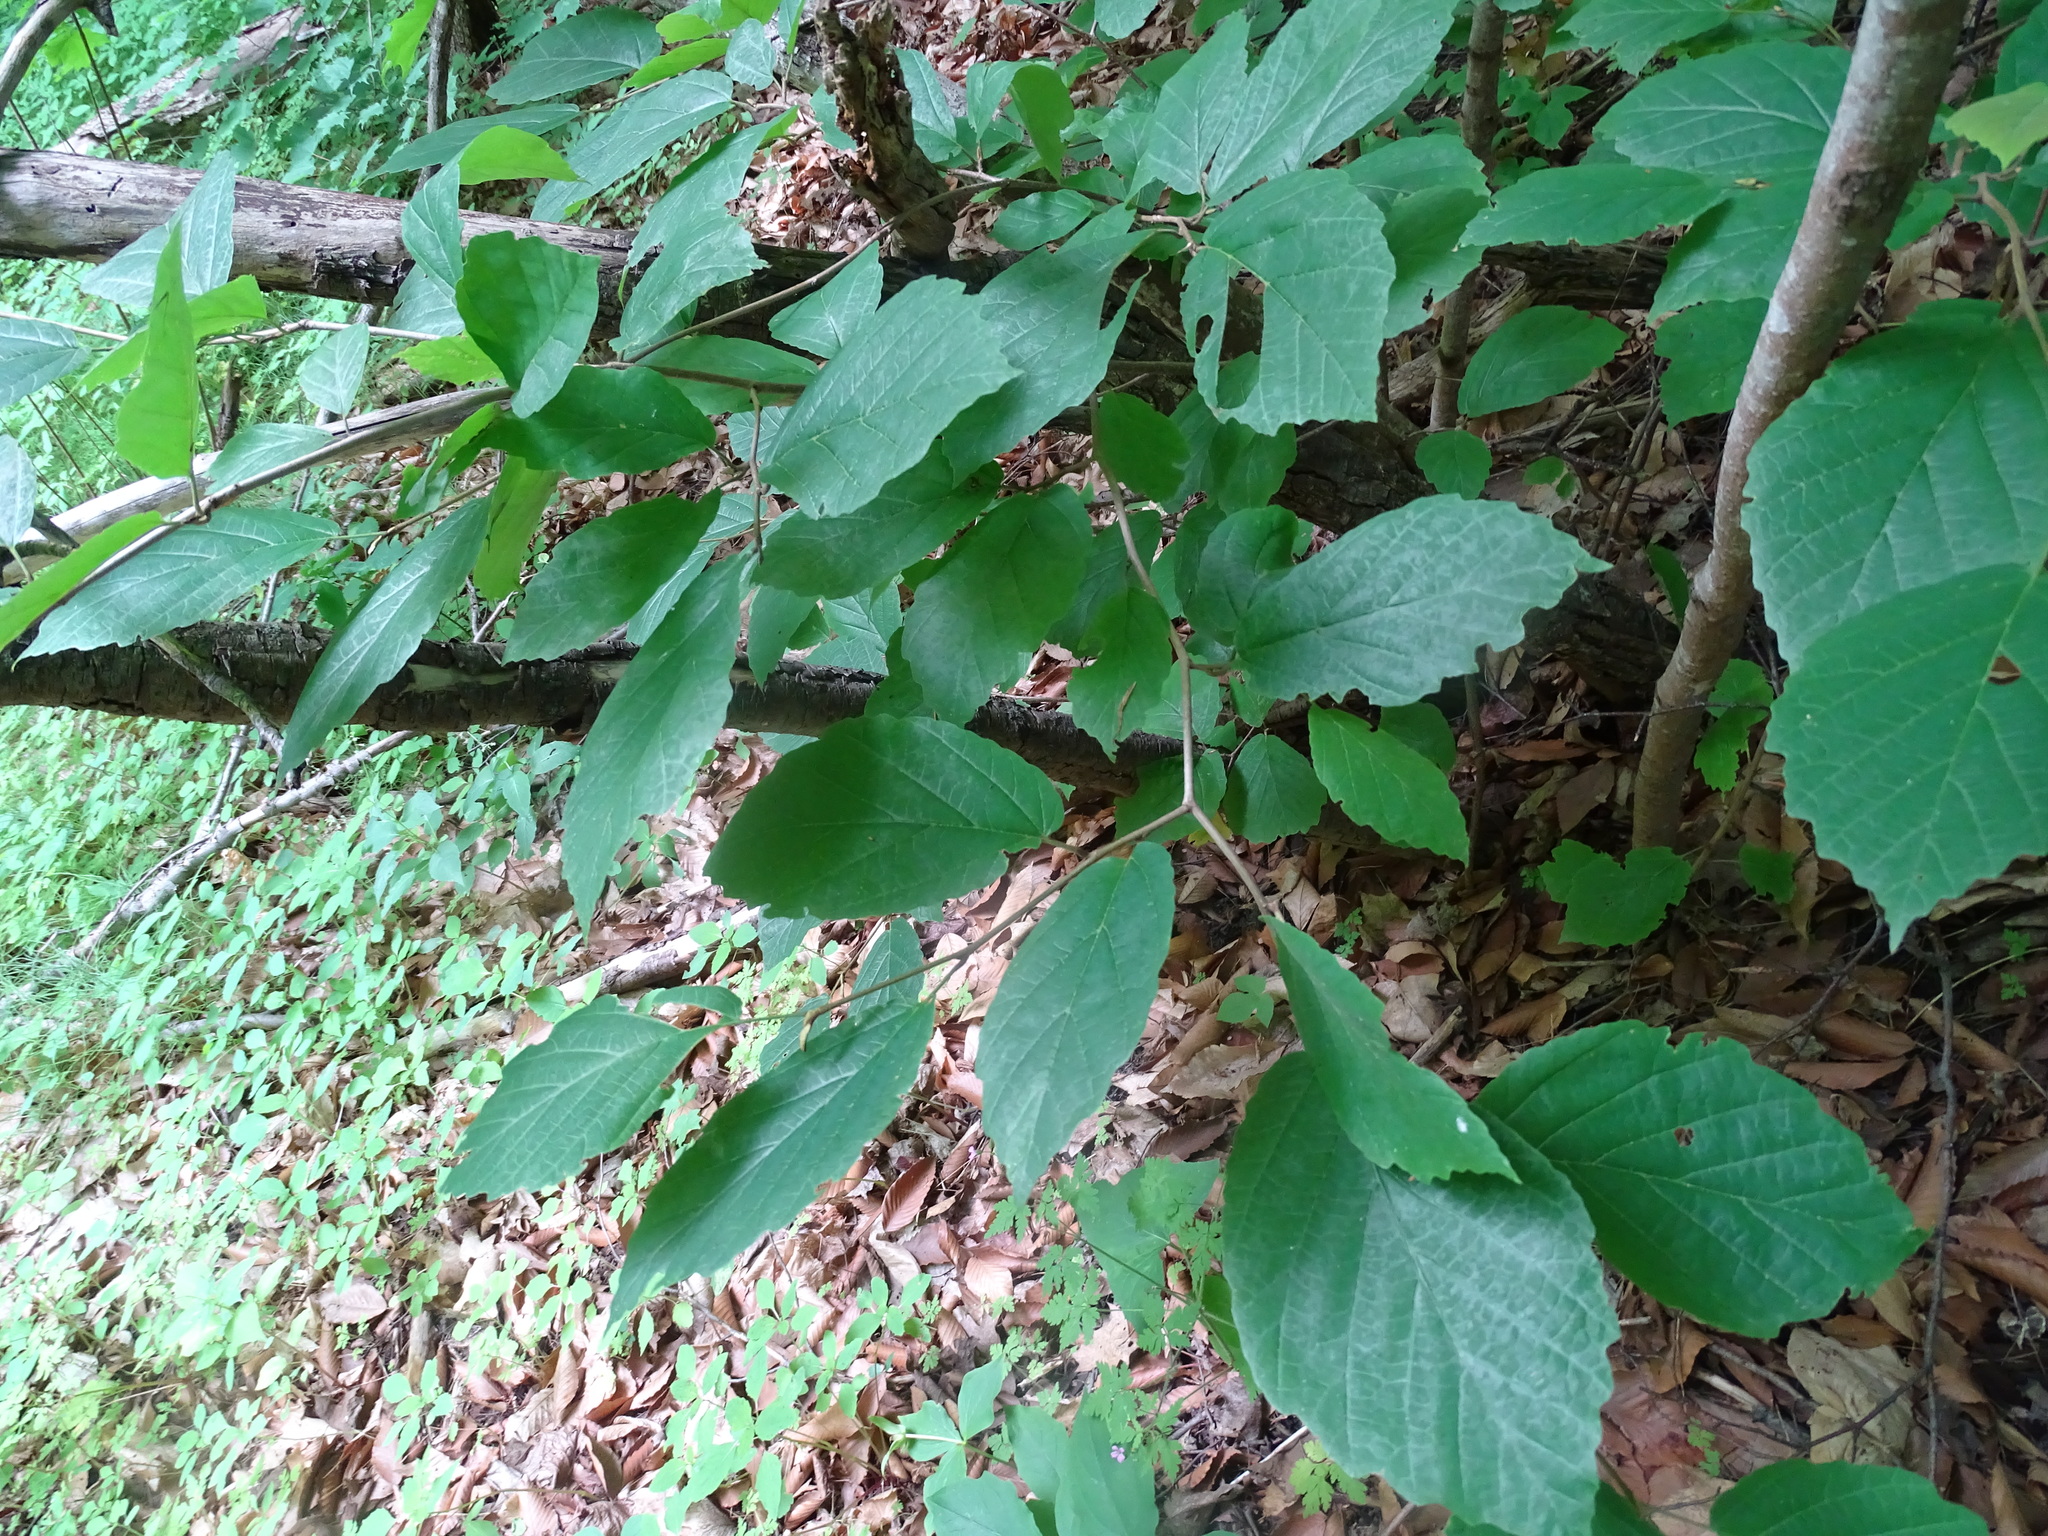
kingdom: Plantae
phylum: Tracheophyta
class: Magnoliopsida
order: Saxifragales
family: Hamamelidaceae
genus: Hamamelis
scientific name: Hamamelis virginiana
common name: Witch-hazel
